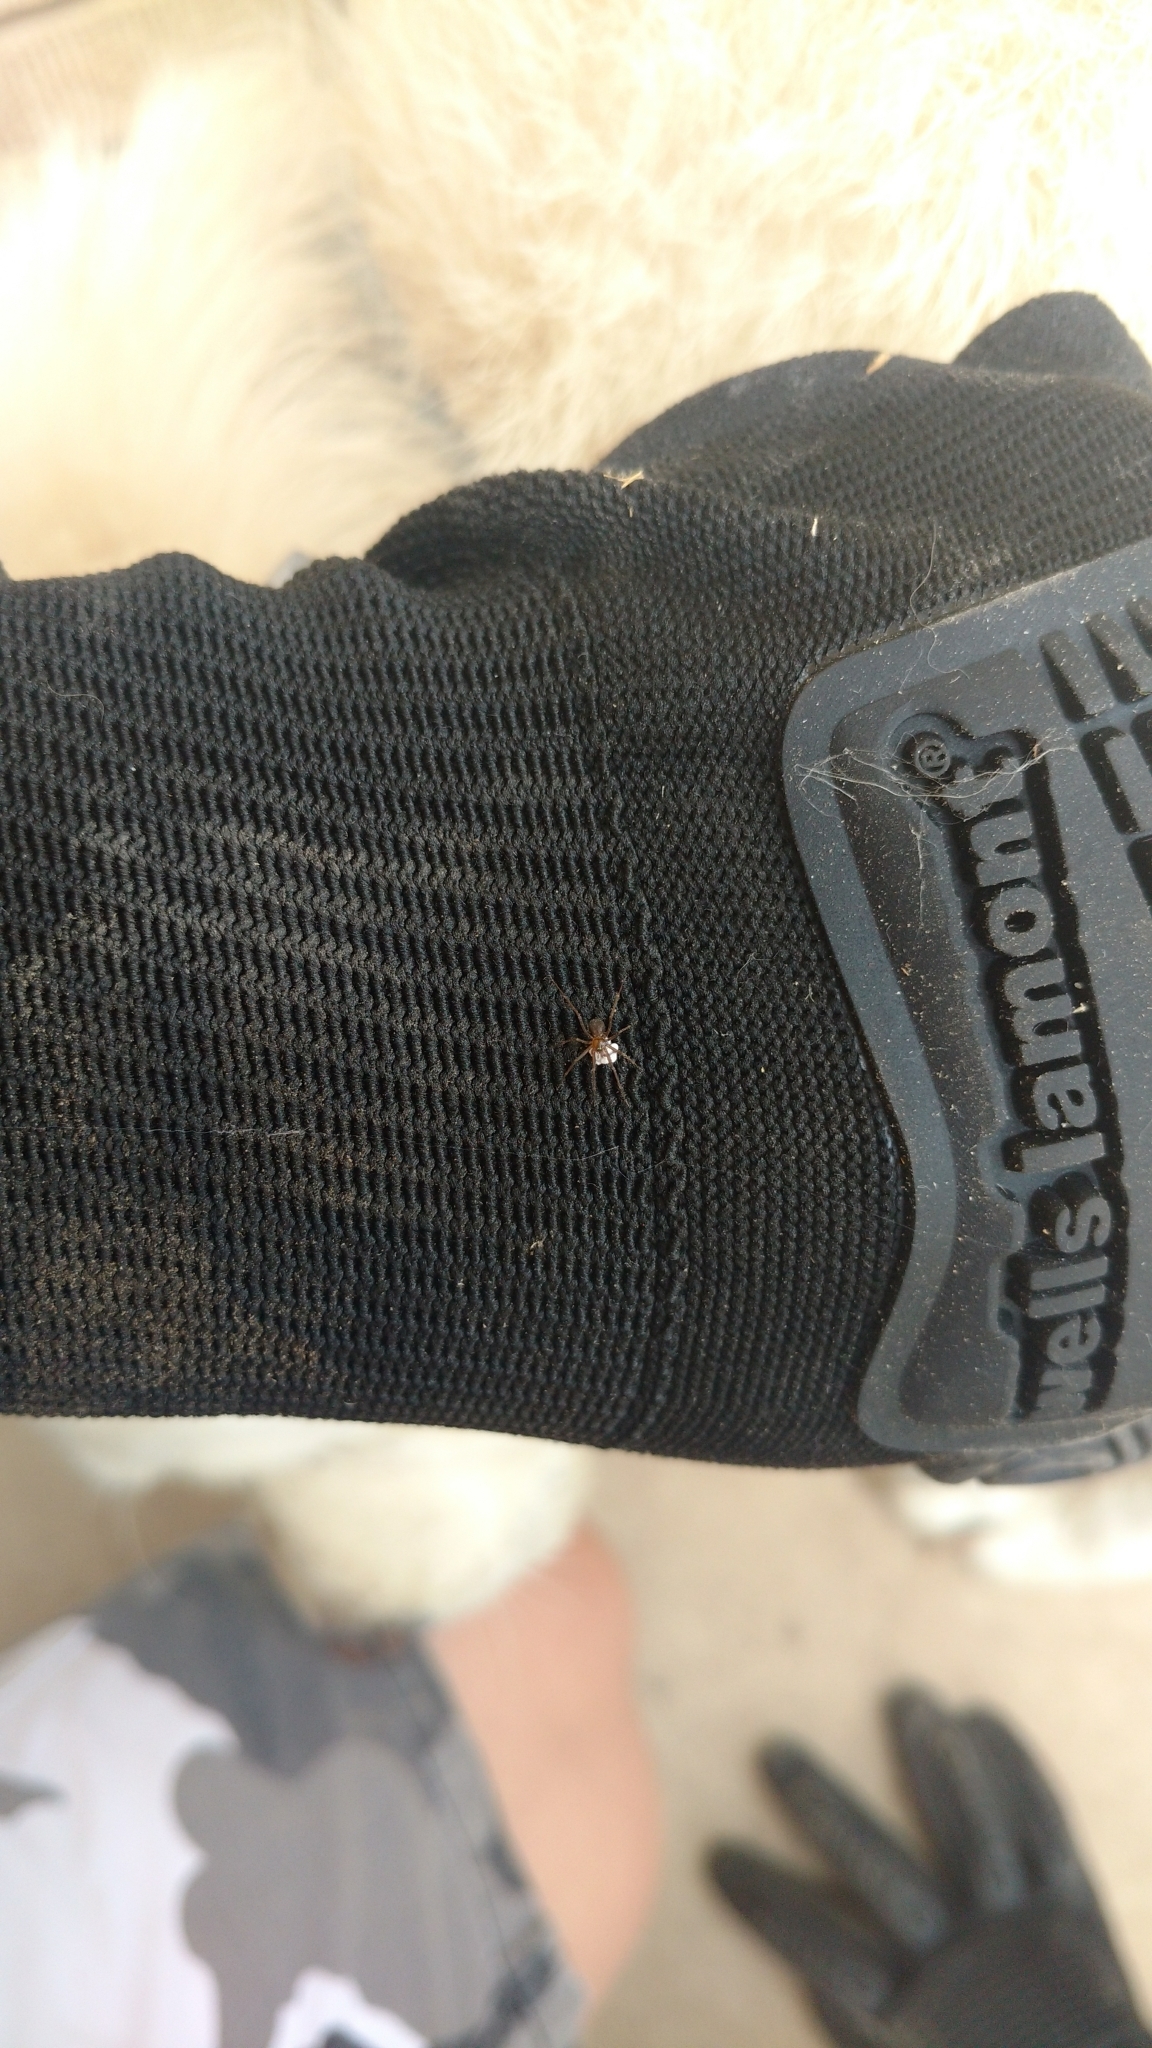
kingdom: Animalia
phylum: Arthropoda
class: Arachnida
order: Araneae
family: Pholcidae
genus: Pholcophora
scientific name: Pholcophora americana
